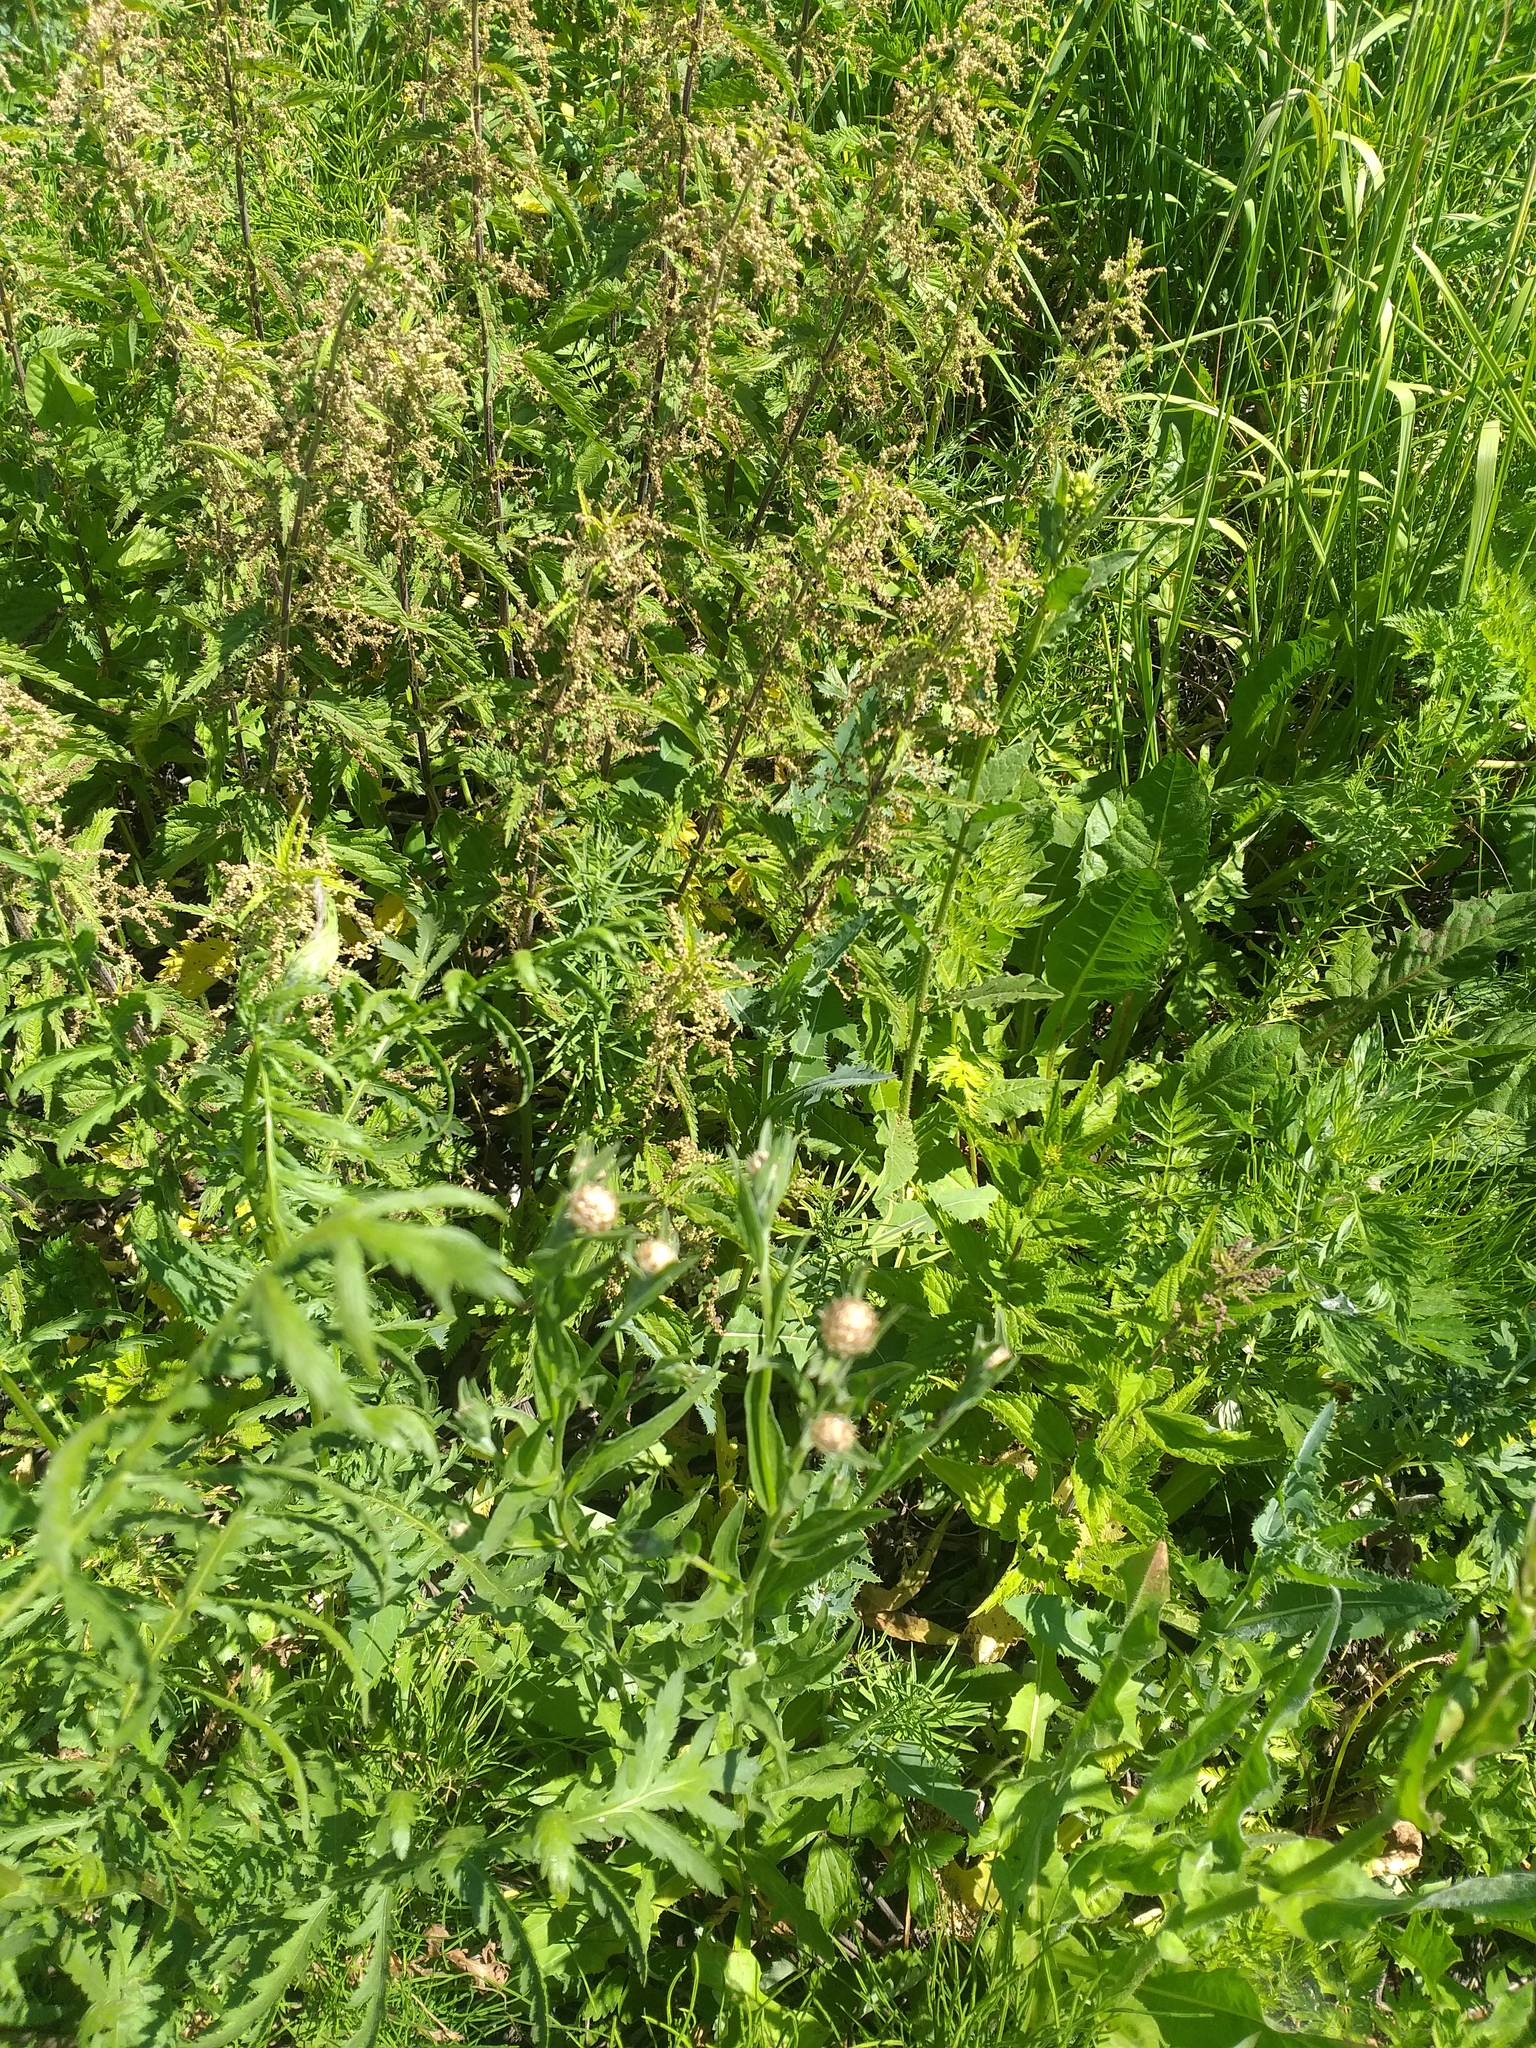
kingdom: Plantae
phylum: Tracheophyta
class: Magnoliopsida
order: Asterales
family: Asteraceae
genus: Centaurea
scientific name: Centaurea jacea
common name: Brown knapweed
